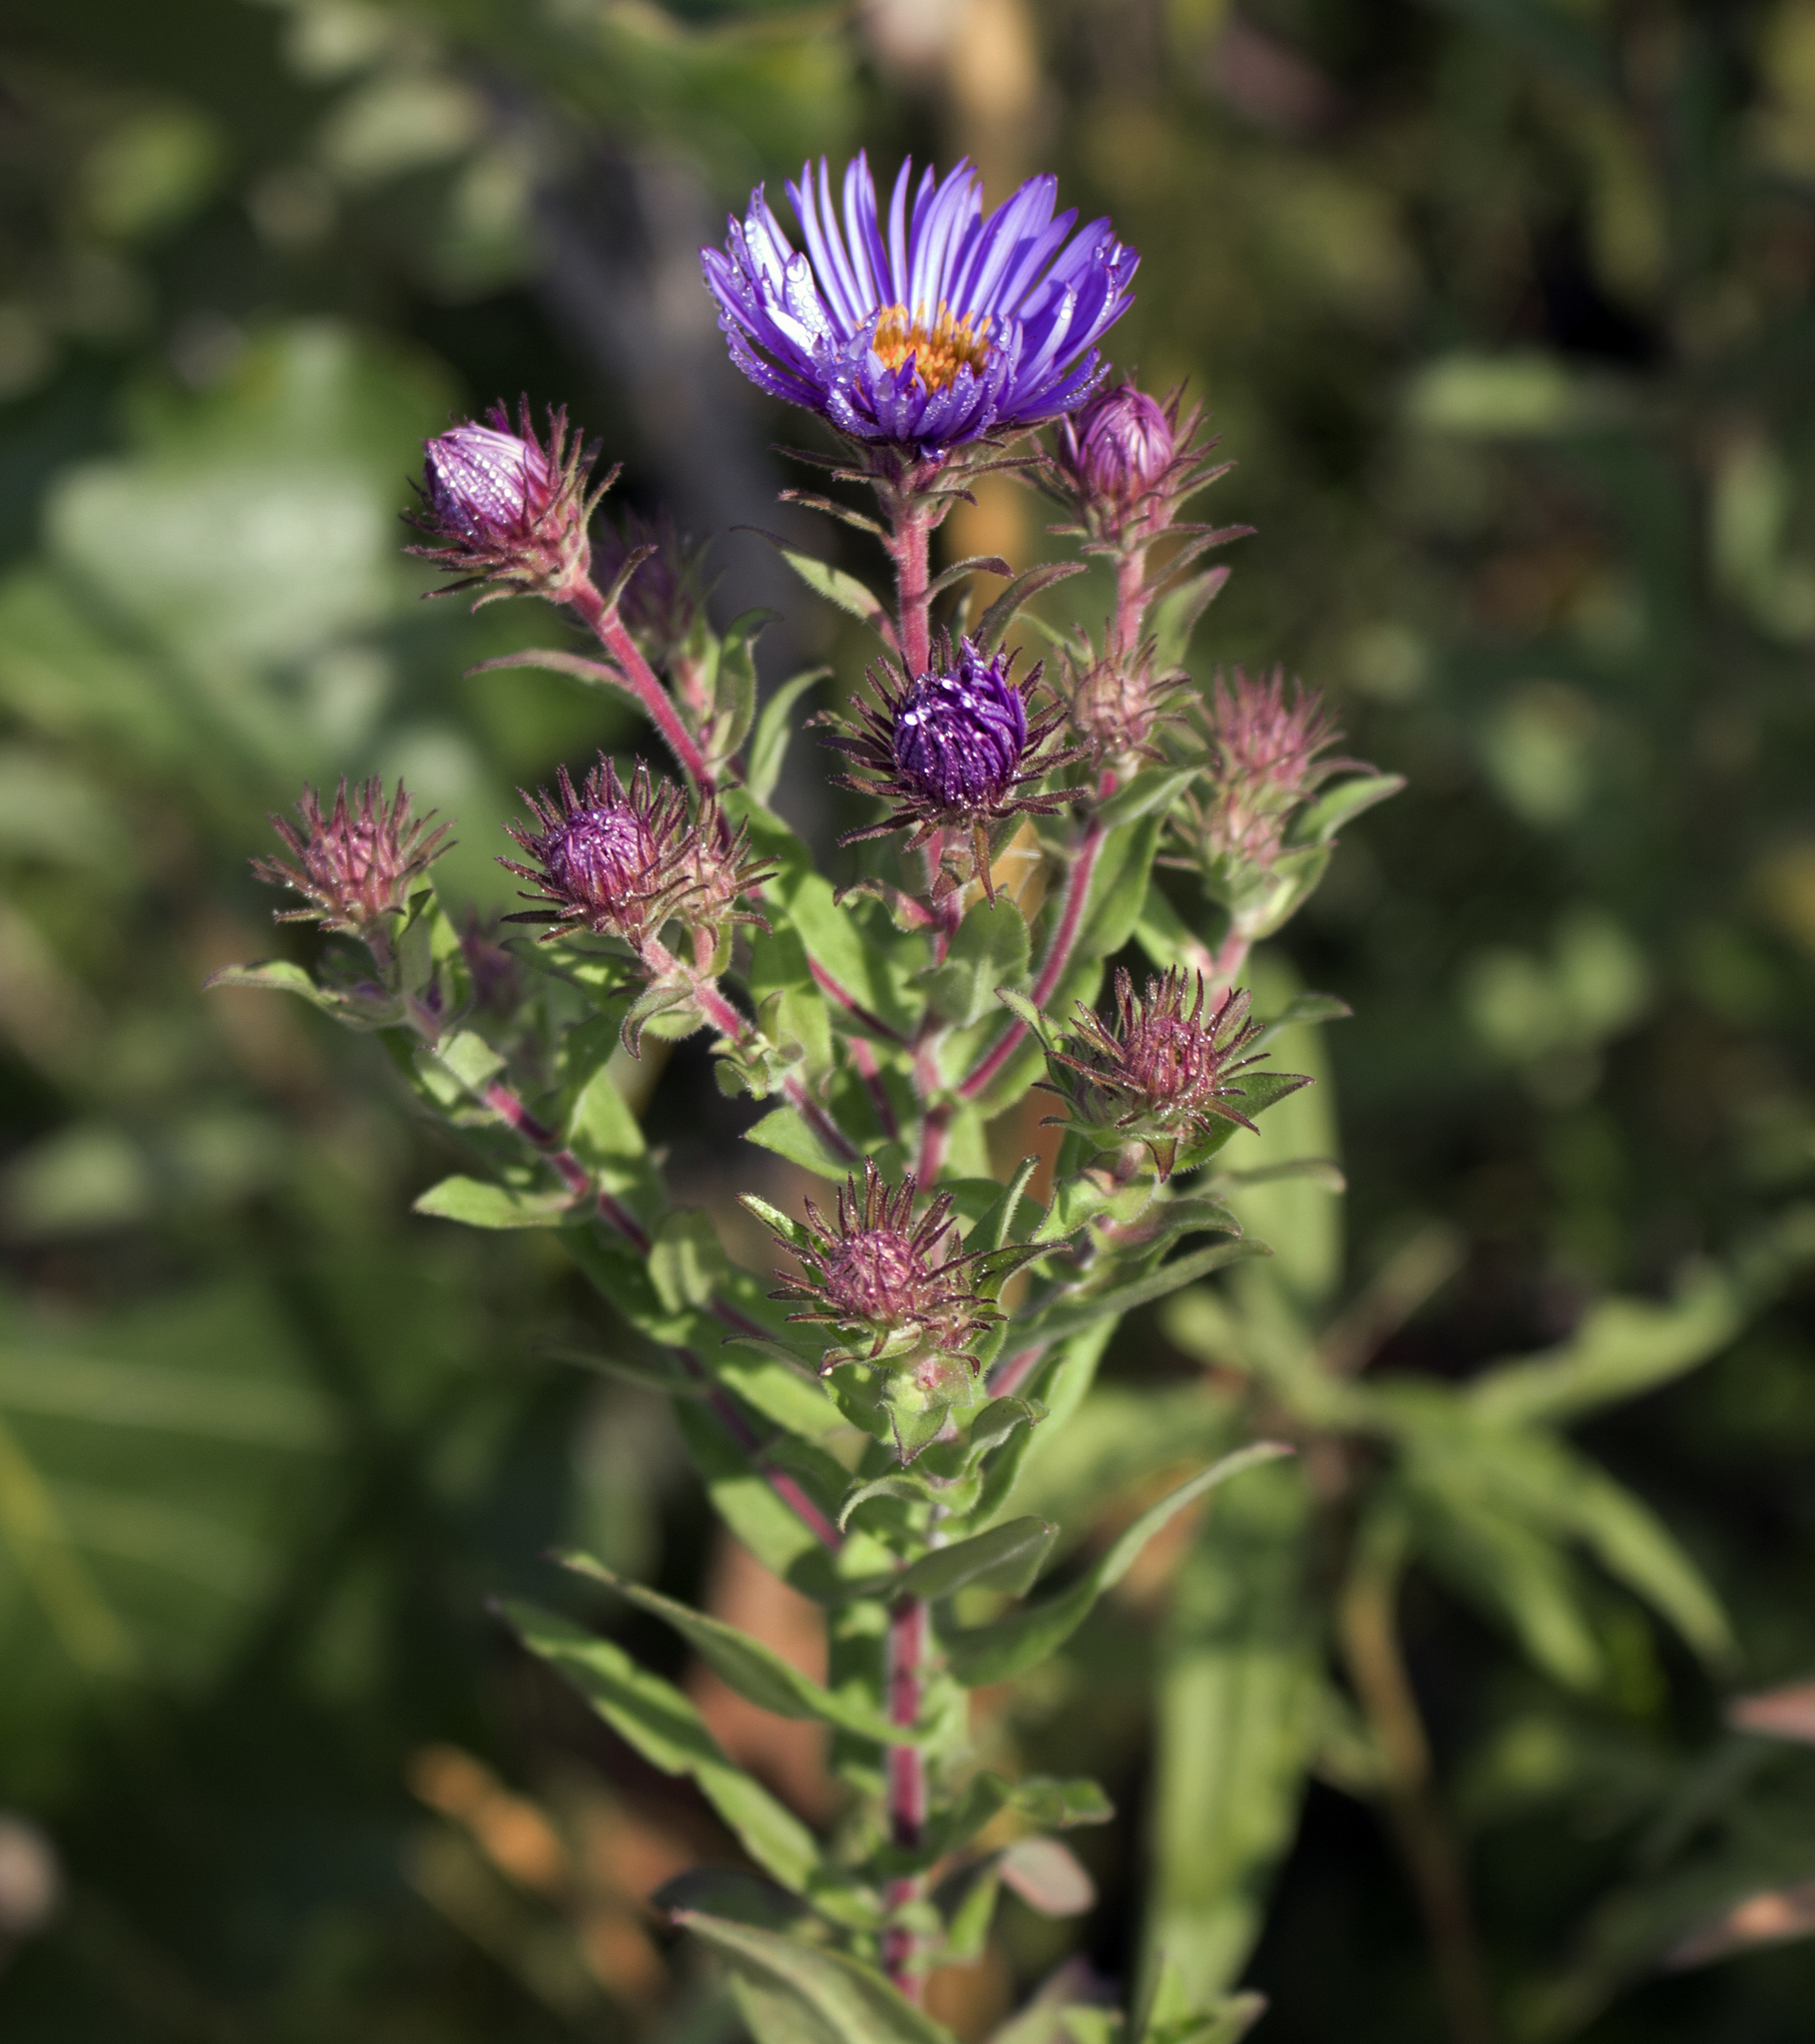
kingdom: Plantae
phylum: Tracheophyta
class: Magnoliopsida
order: Asterales
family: Asteraceae
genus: Symphyotrichum
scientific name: Symphyotrichum novae-angliae
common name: Michaelmas daisy
